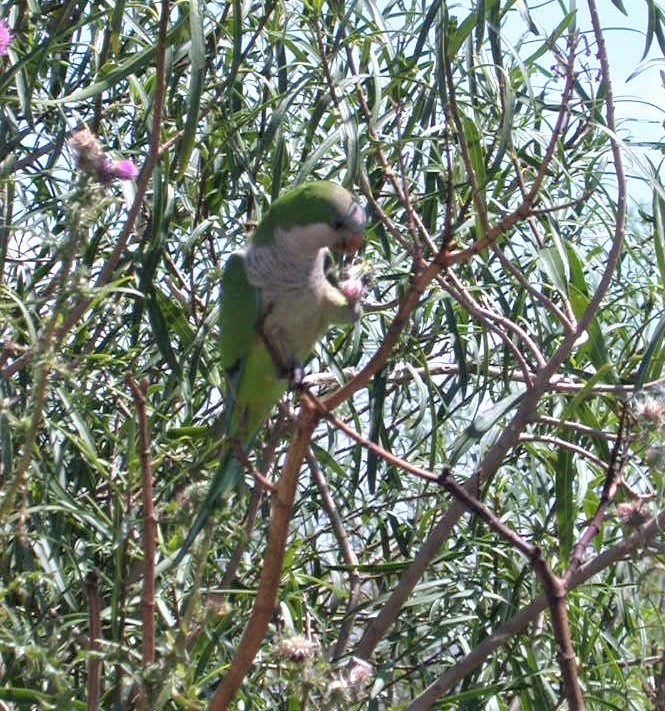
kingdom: Animalia
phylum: Chordata
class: Aves
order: Psittaciformes
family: Psittacidae
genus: Myiopsitta
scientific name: Myiopsitta monachus
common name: Monk parakeet
